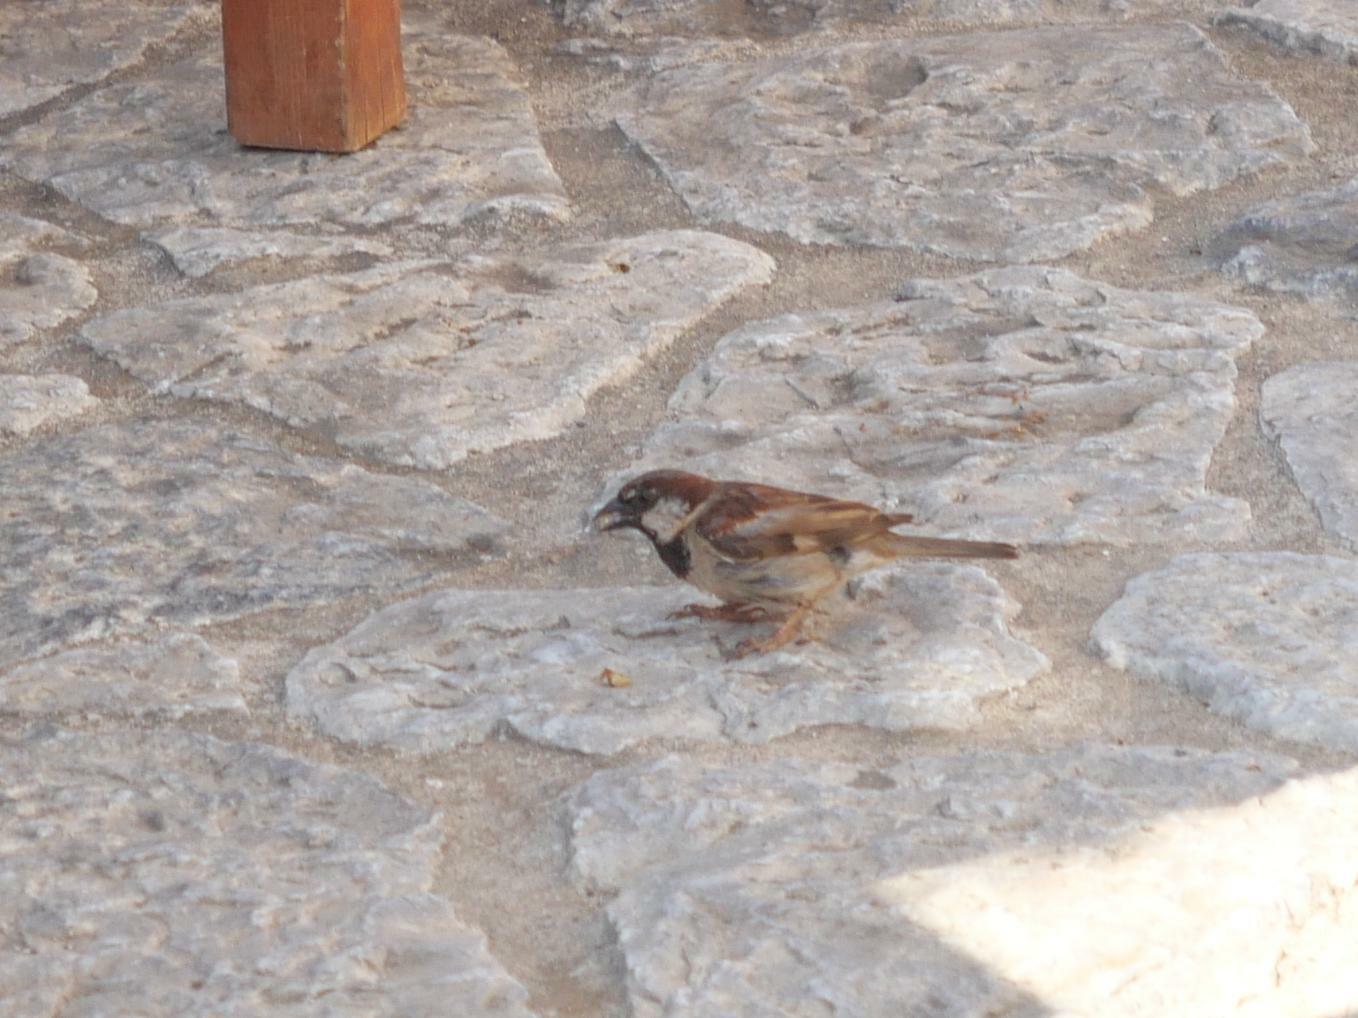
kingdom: Animalia
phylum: Chordata
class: Aves
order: Passeriformes
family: Passeridae
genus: Passer
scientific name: Passer domesticus
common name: House sparrow
